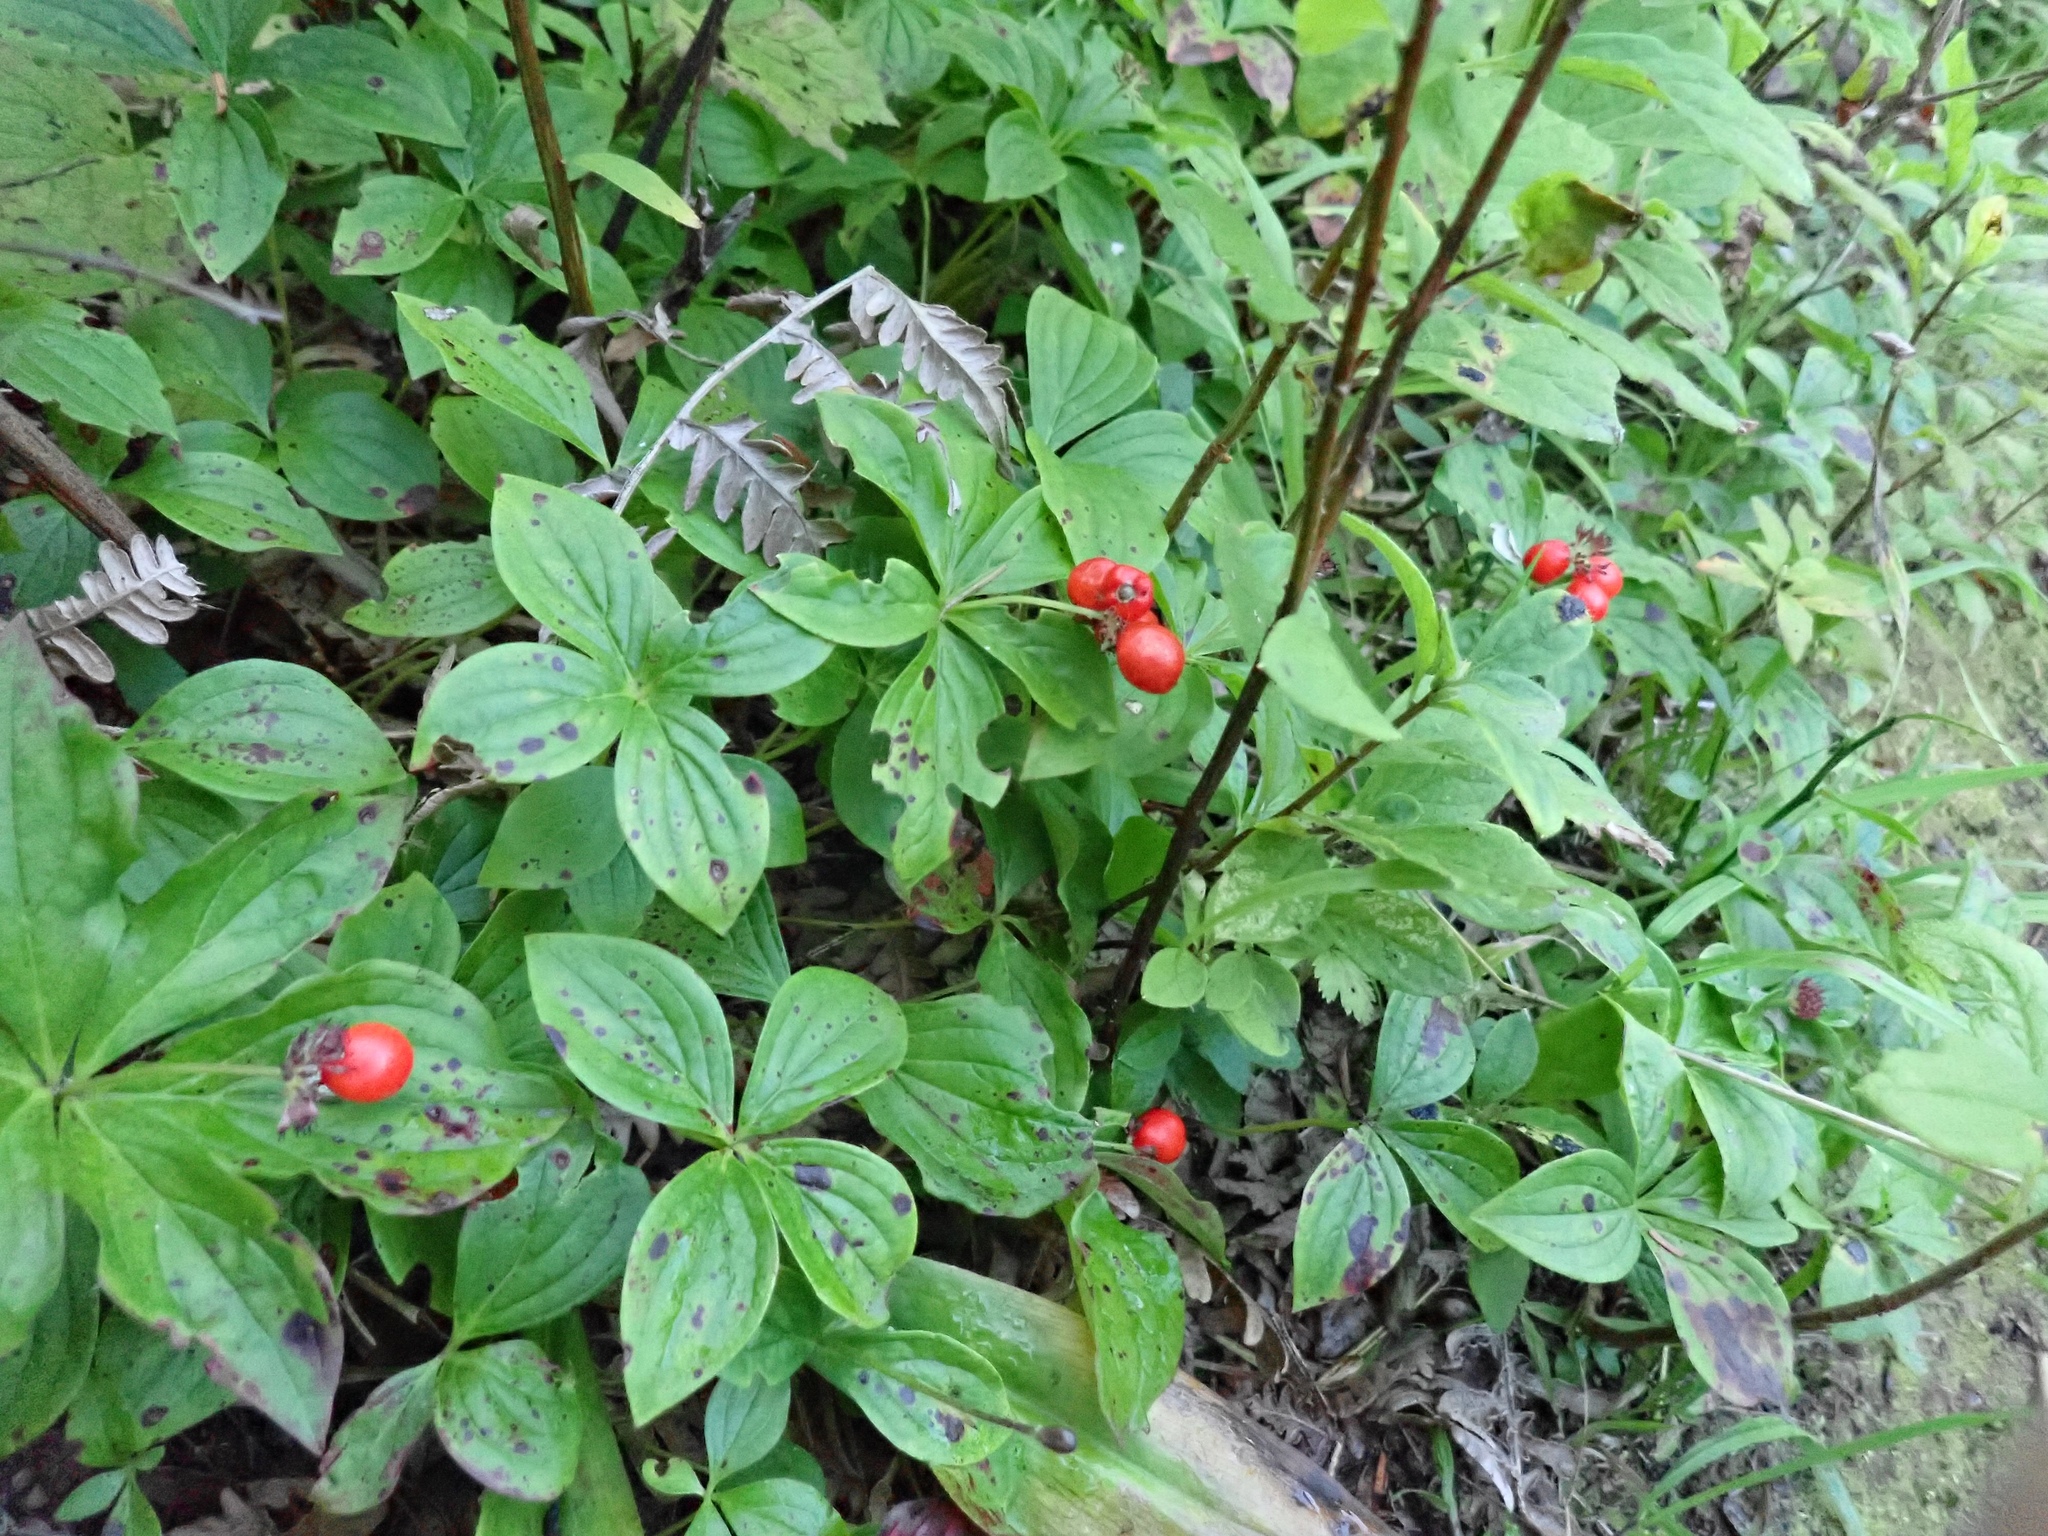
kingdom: Plantae
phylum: Tracheophyta
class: Magnoliopsida
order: Cornales
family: Cornaceae
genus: Cornus
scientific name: Cornus unalaschkensis
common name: Alaska bunchberry
